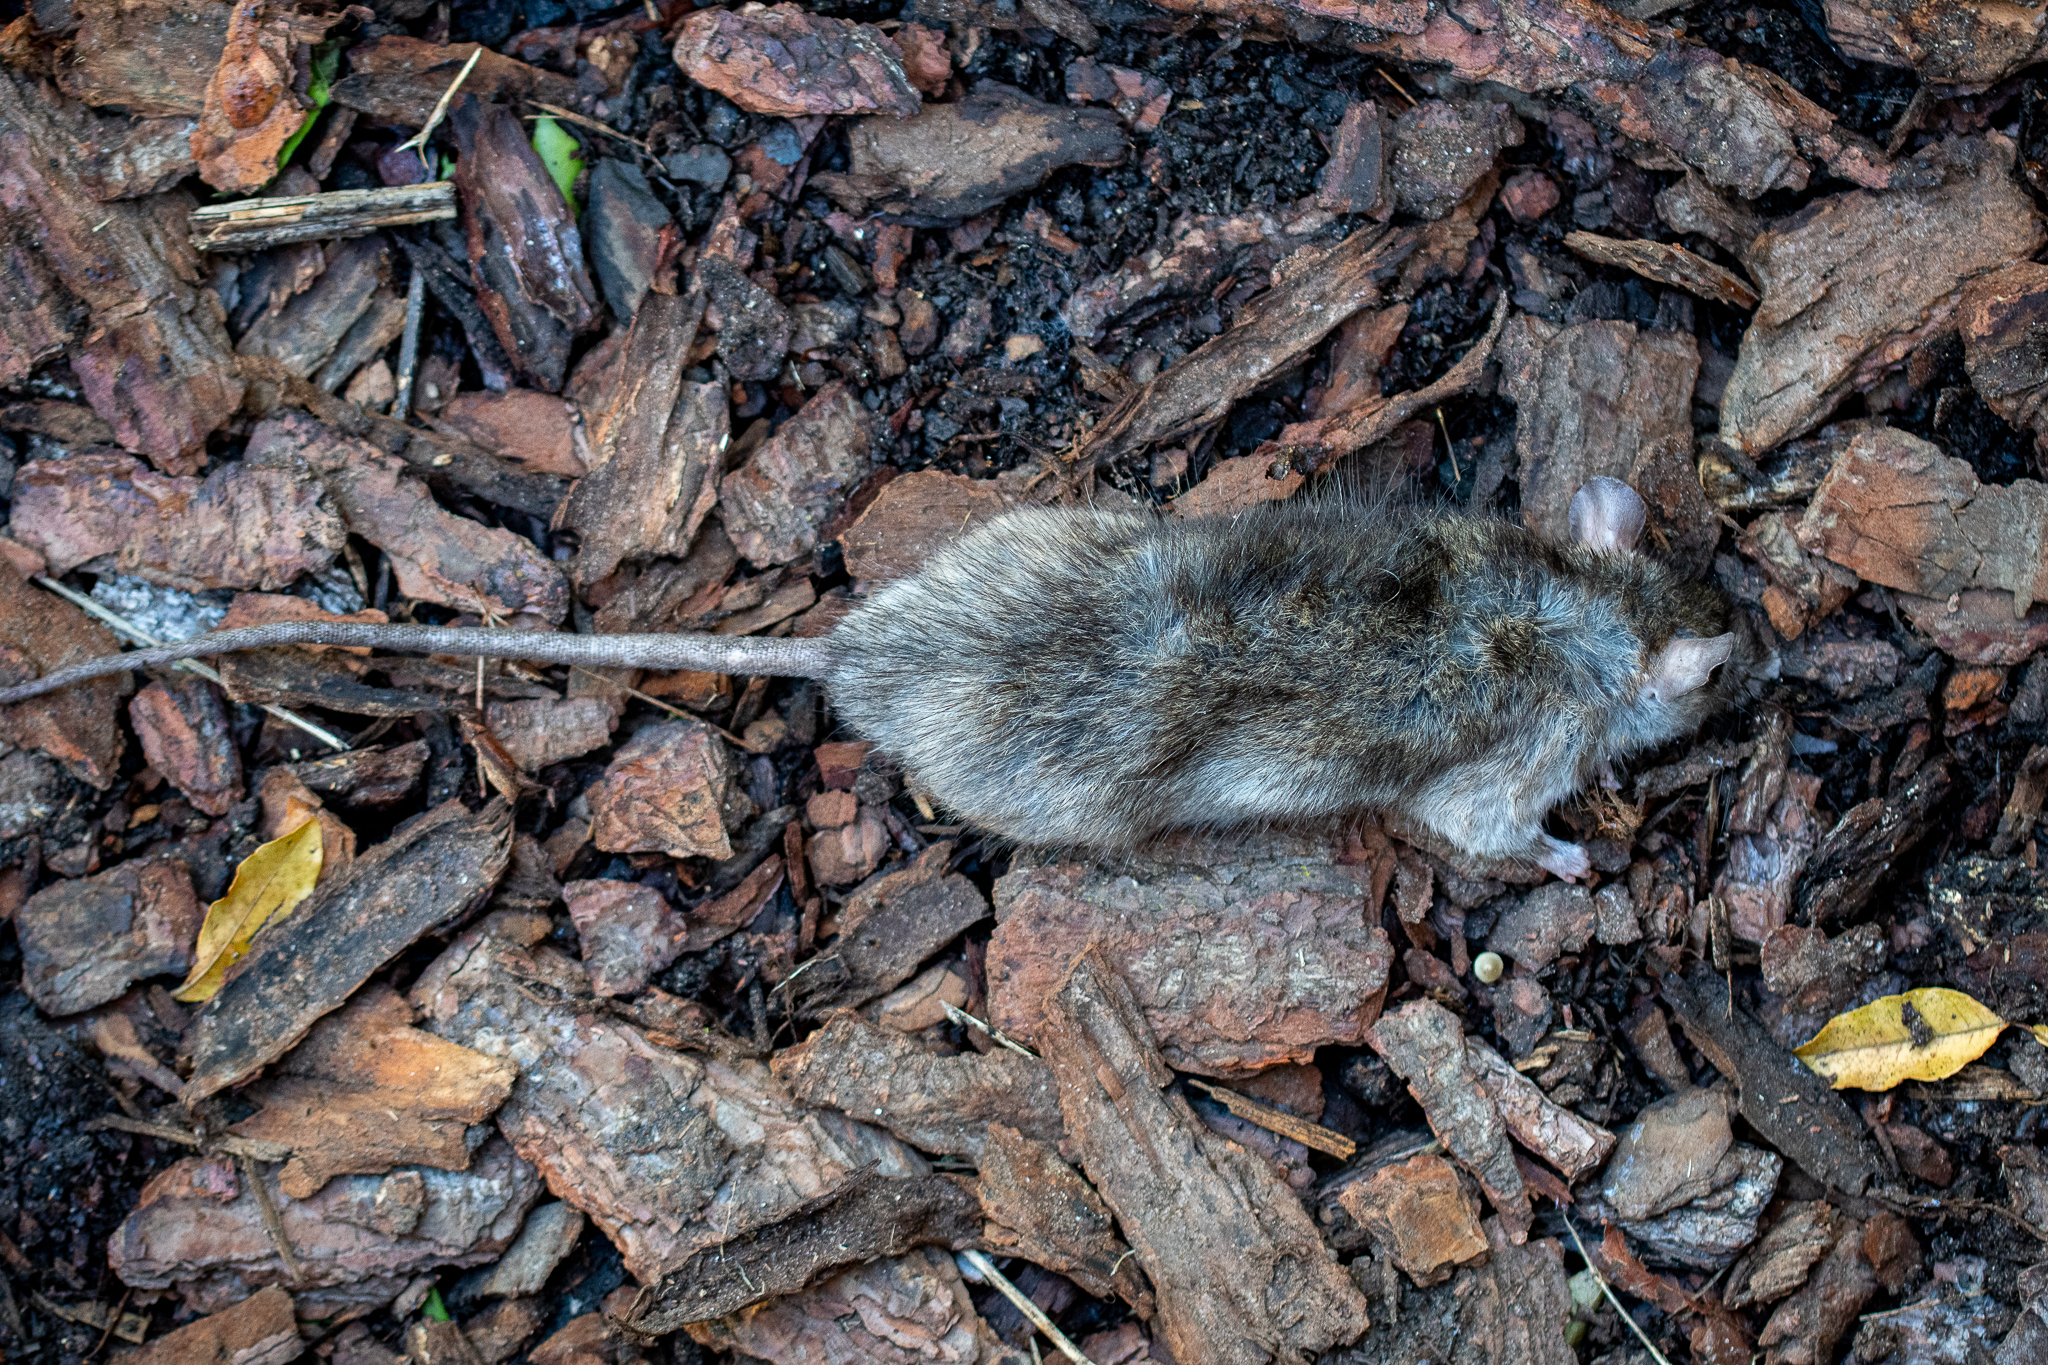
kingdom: Animalia
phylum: Chordata
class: Mammalia
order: Rodentia
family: Muridae
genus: Rattus
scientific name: Rattus rattus
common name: Black rat
